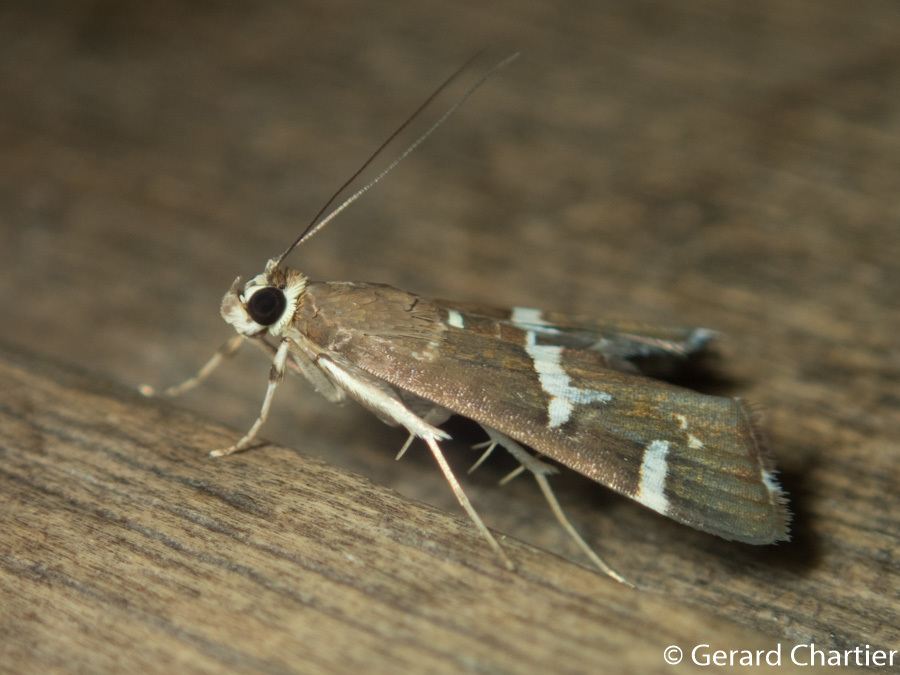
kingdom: Animalia
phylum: Arthropoda
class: Insecta
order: Lepidoptera
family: Crambidae
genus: Spoladea
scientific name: Spoladea recurvalis
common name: Beet webworm moth
